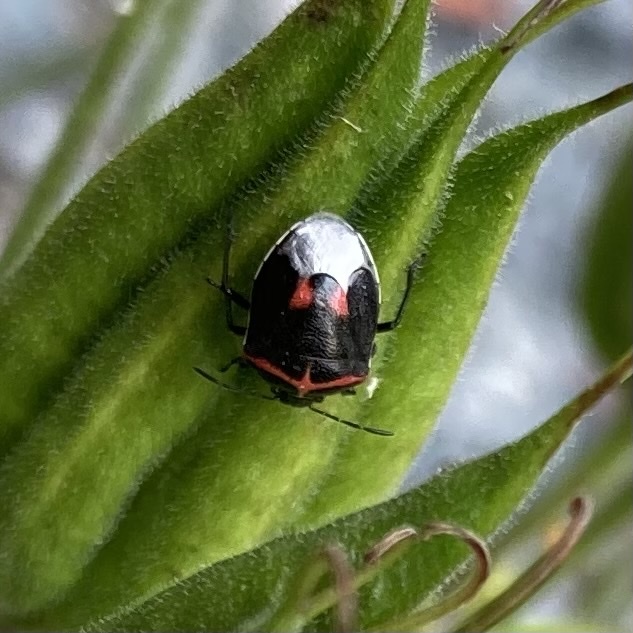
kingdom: Animalia
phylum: Arthropoda
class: Insecta
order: Hemiptera
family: Pentatomidae
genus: Cosmopepla
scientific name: Cosmopepla lintneriana
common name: Twice-stabbed stink bug
